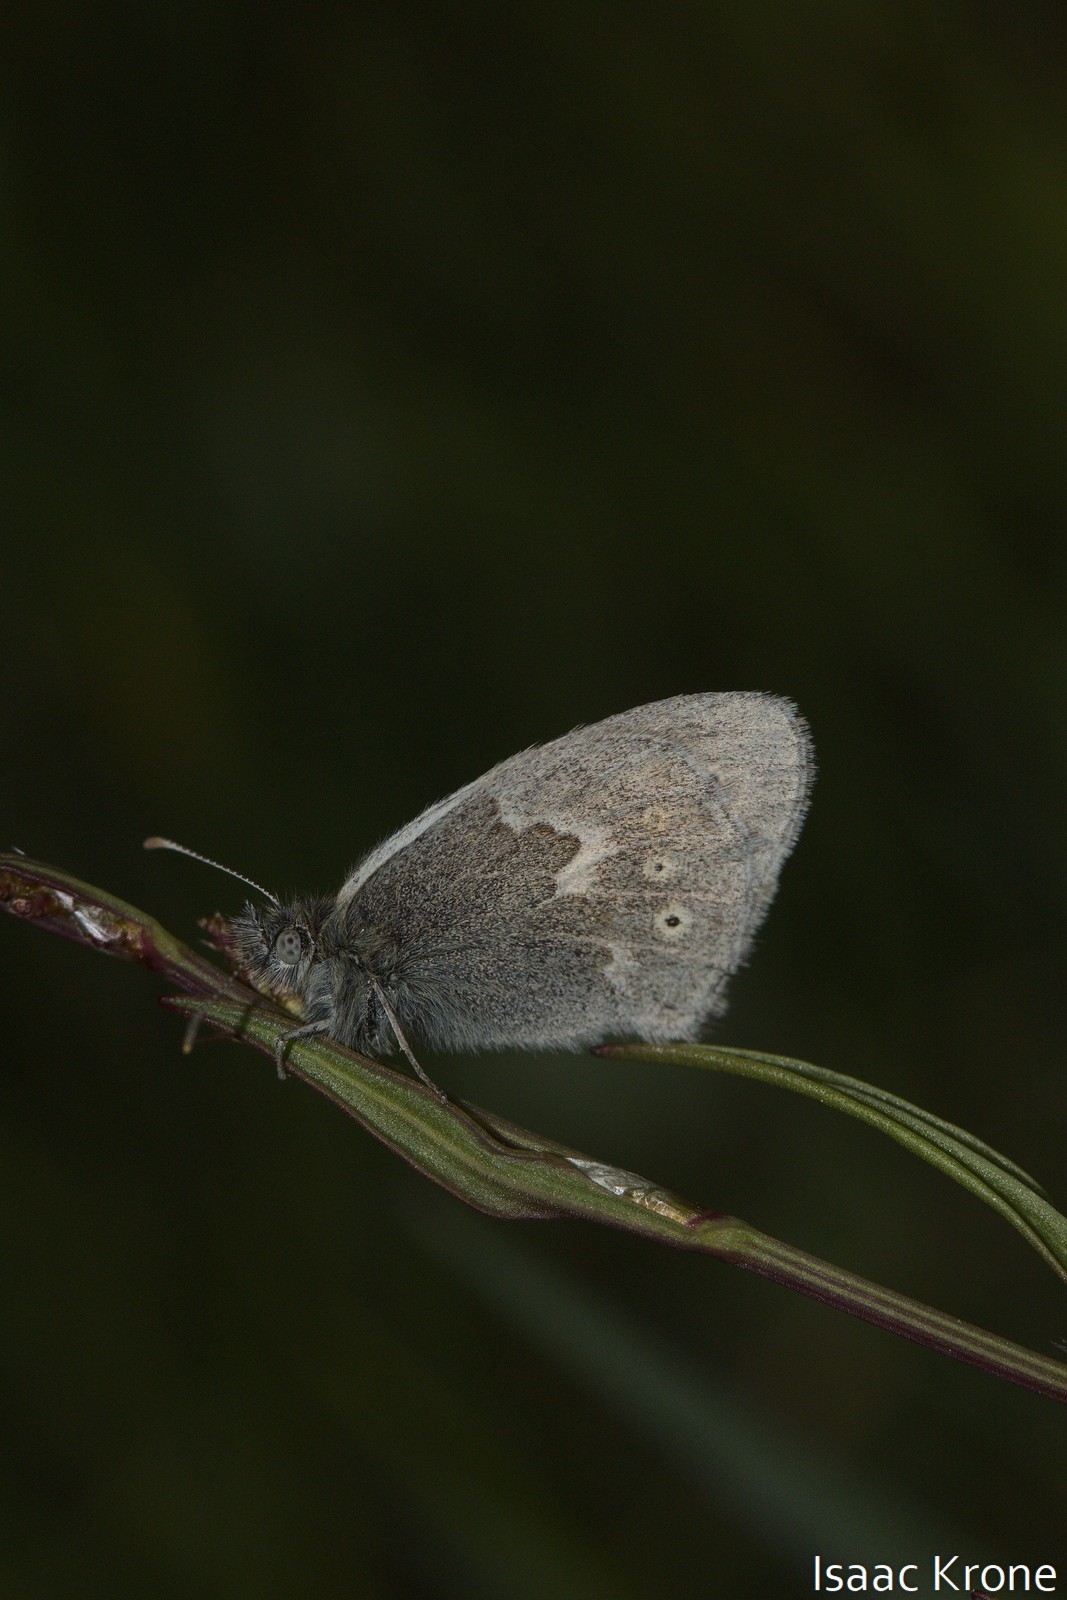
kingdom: Animalia
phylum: Arthropoda
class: Insecta
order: Lepidoptera
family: Nymphalidae
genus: Coenonympha
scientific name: Coenonympha california
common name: Common ringlet
